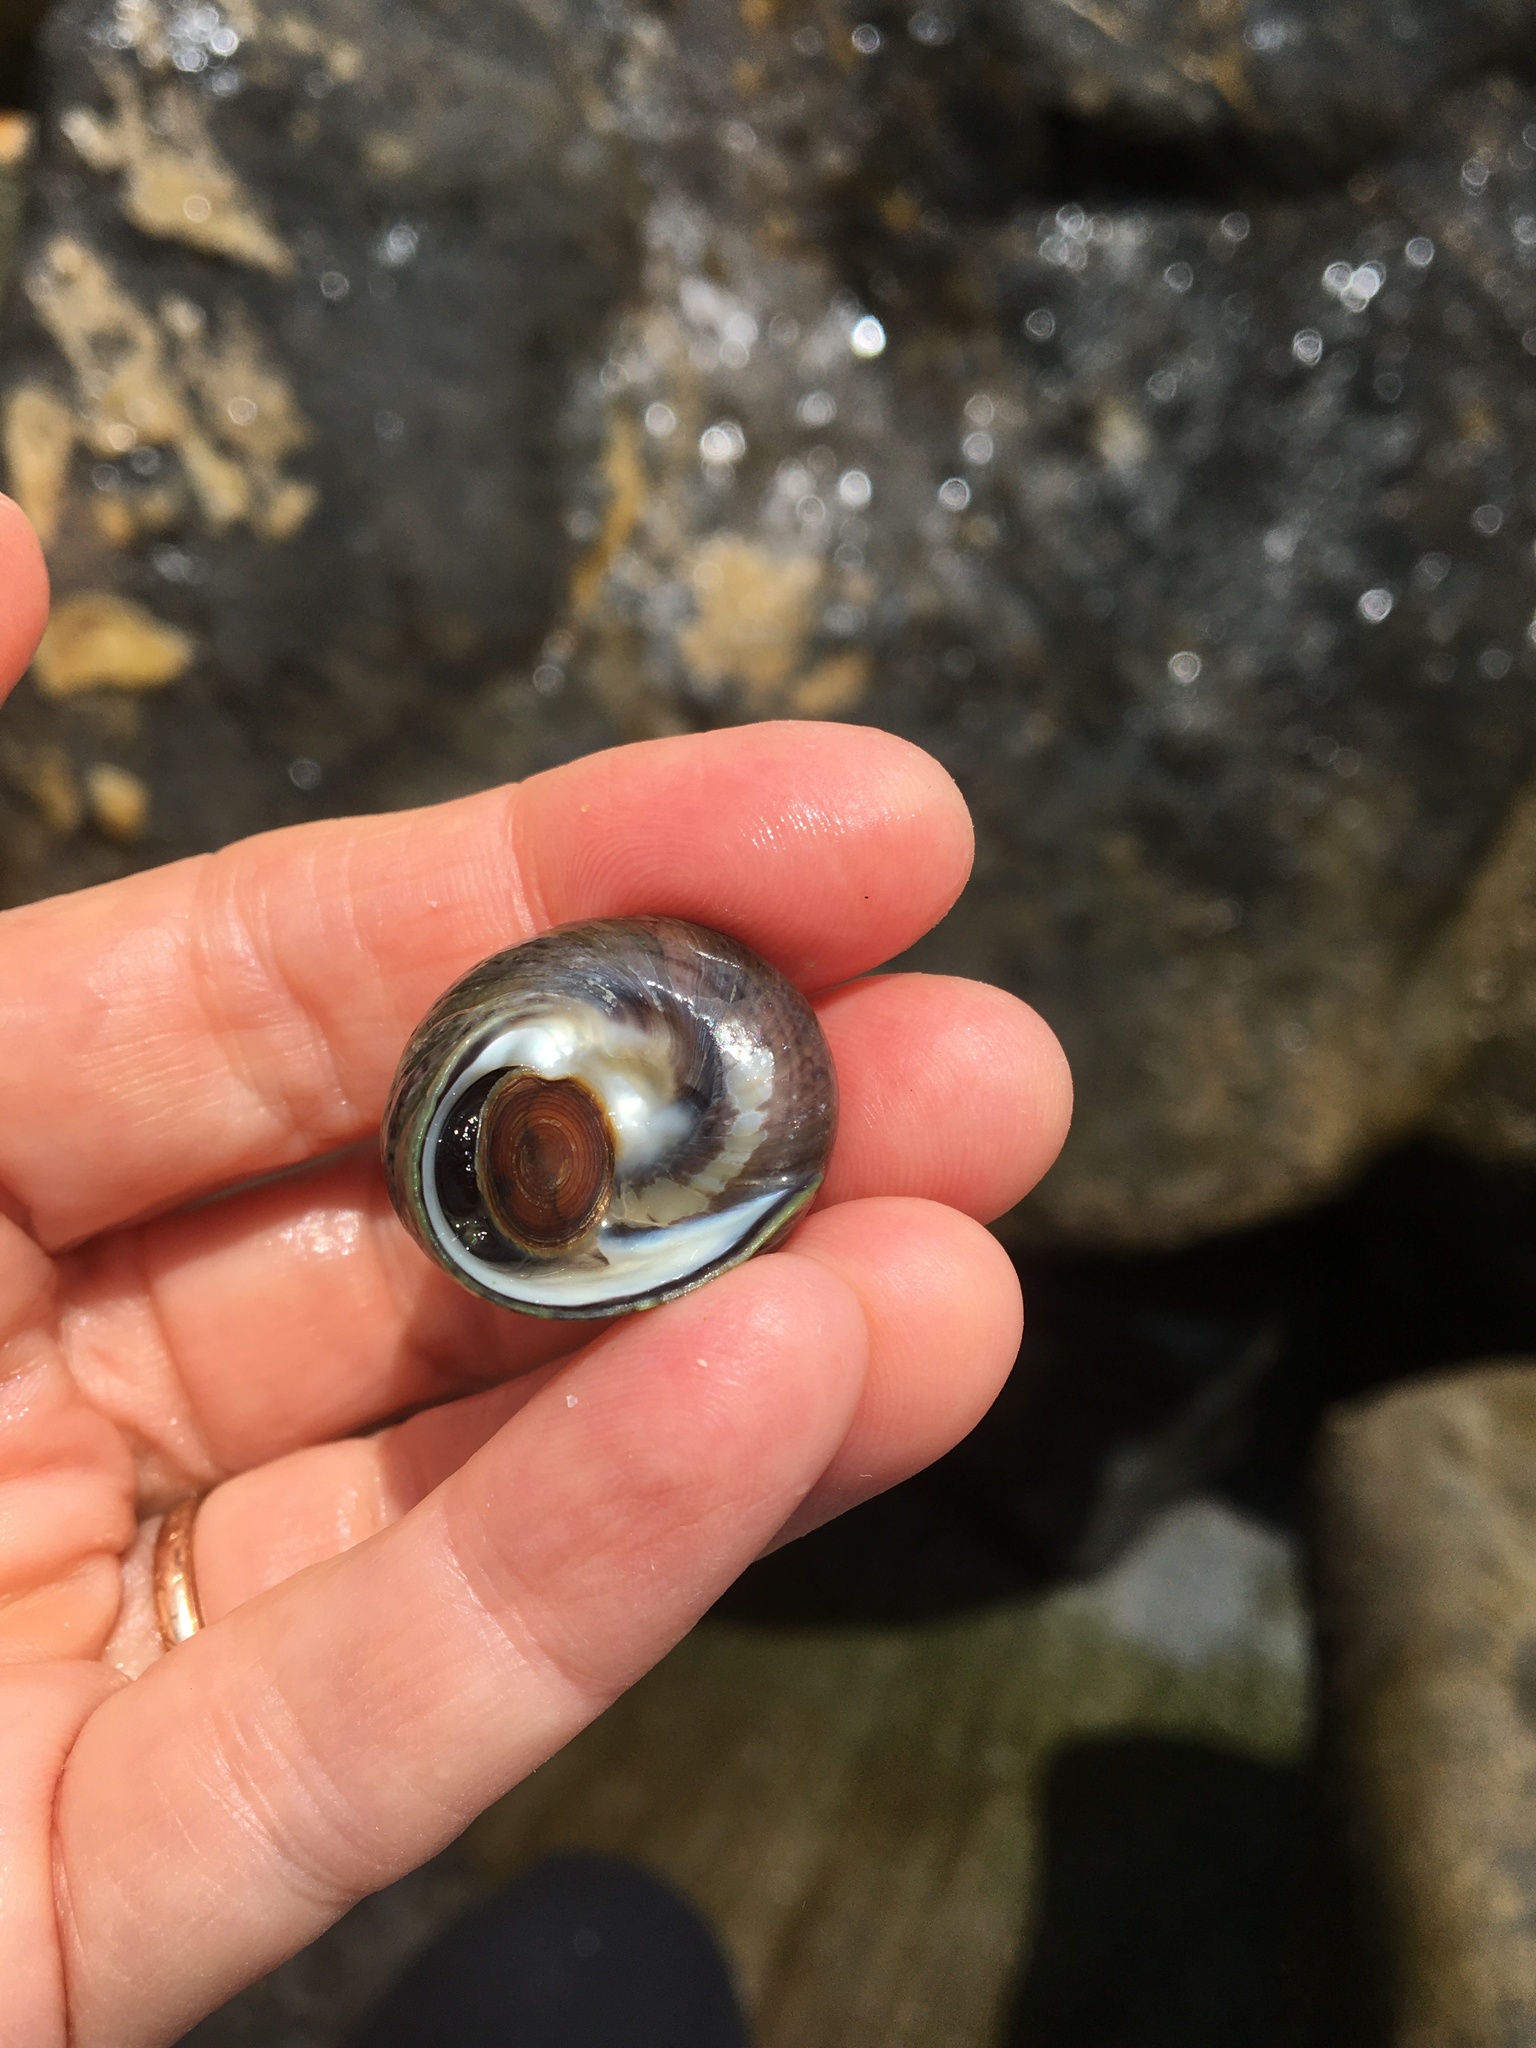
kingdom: Animalia
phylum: Mollusca
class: Gastropoda
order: Trochida
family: Tegulidae
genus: Tegula
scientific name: Tegula funebralis
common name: Black tegula
